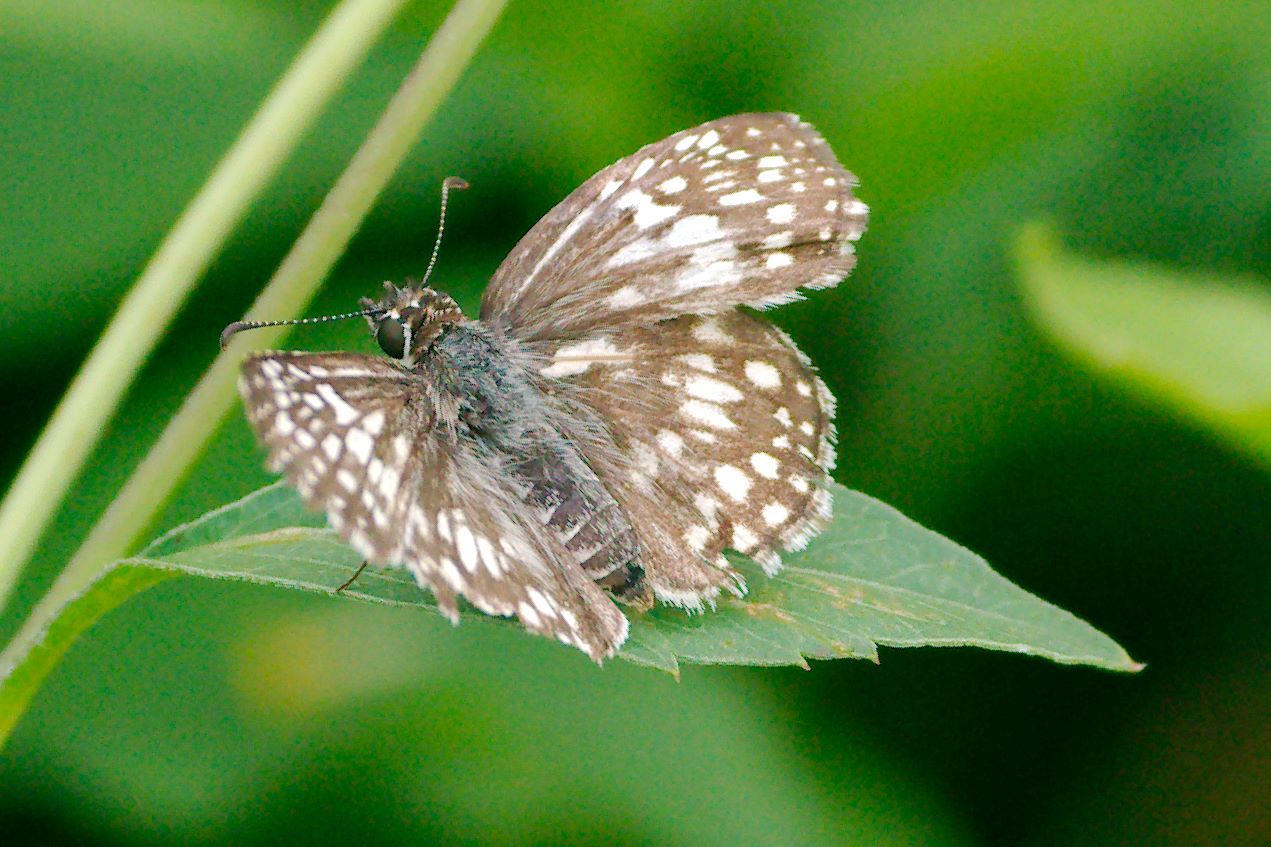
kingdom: Animalia
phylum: Arthropoda
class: Insecta
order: Lepidoptera
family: Hesperiidae
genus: Pyrgus
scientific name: Pyrgus oileus
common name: Tropical checkered-skipper
